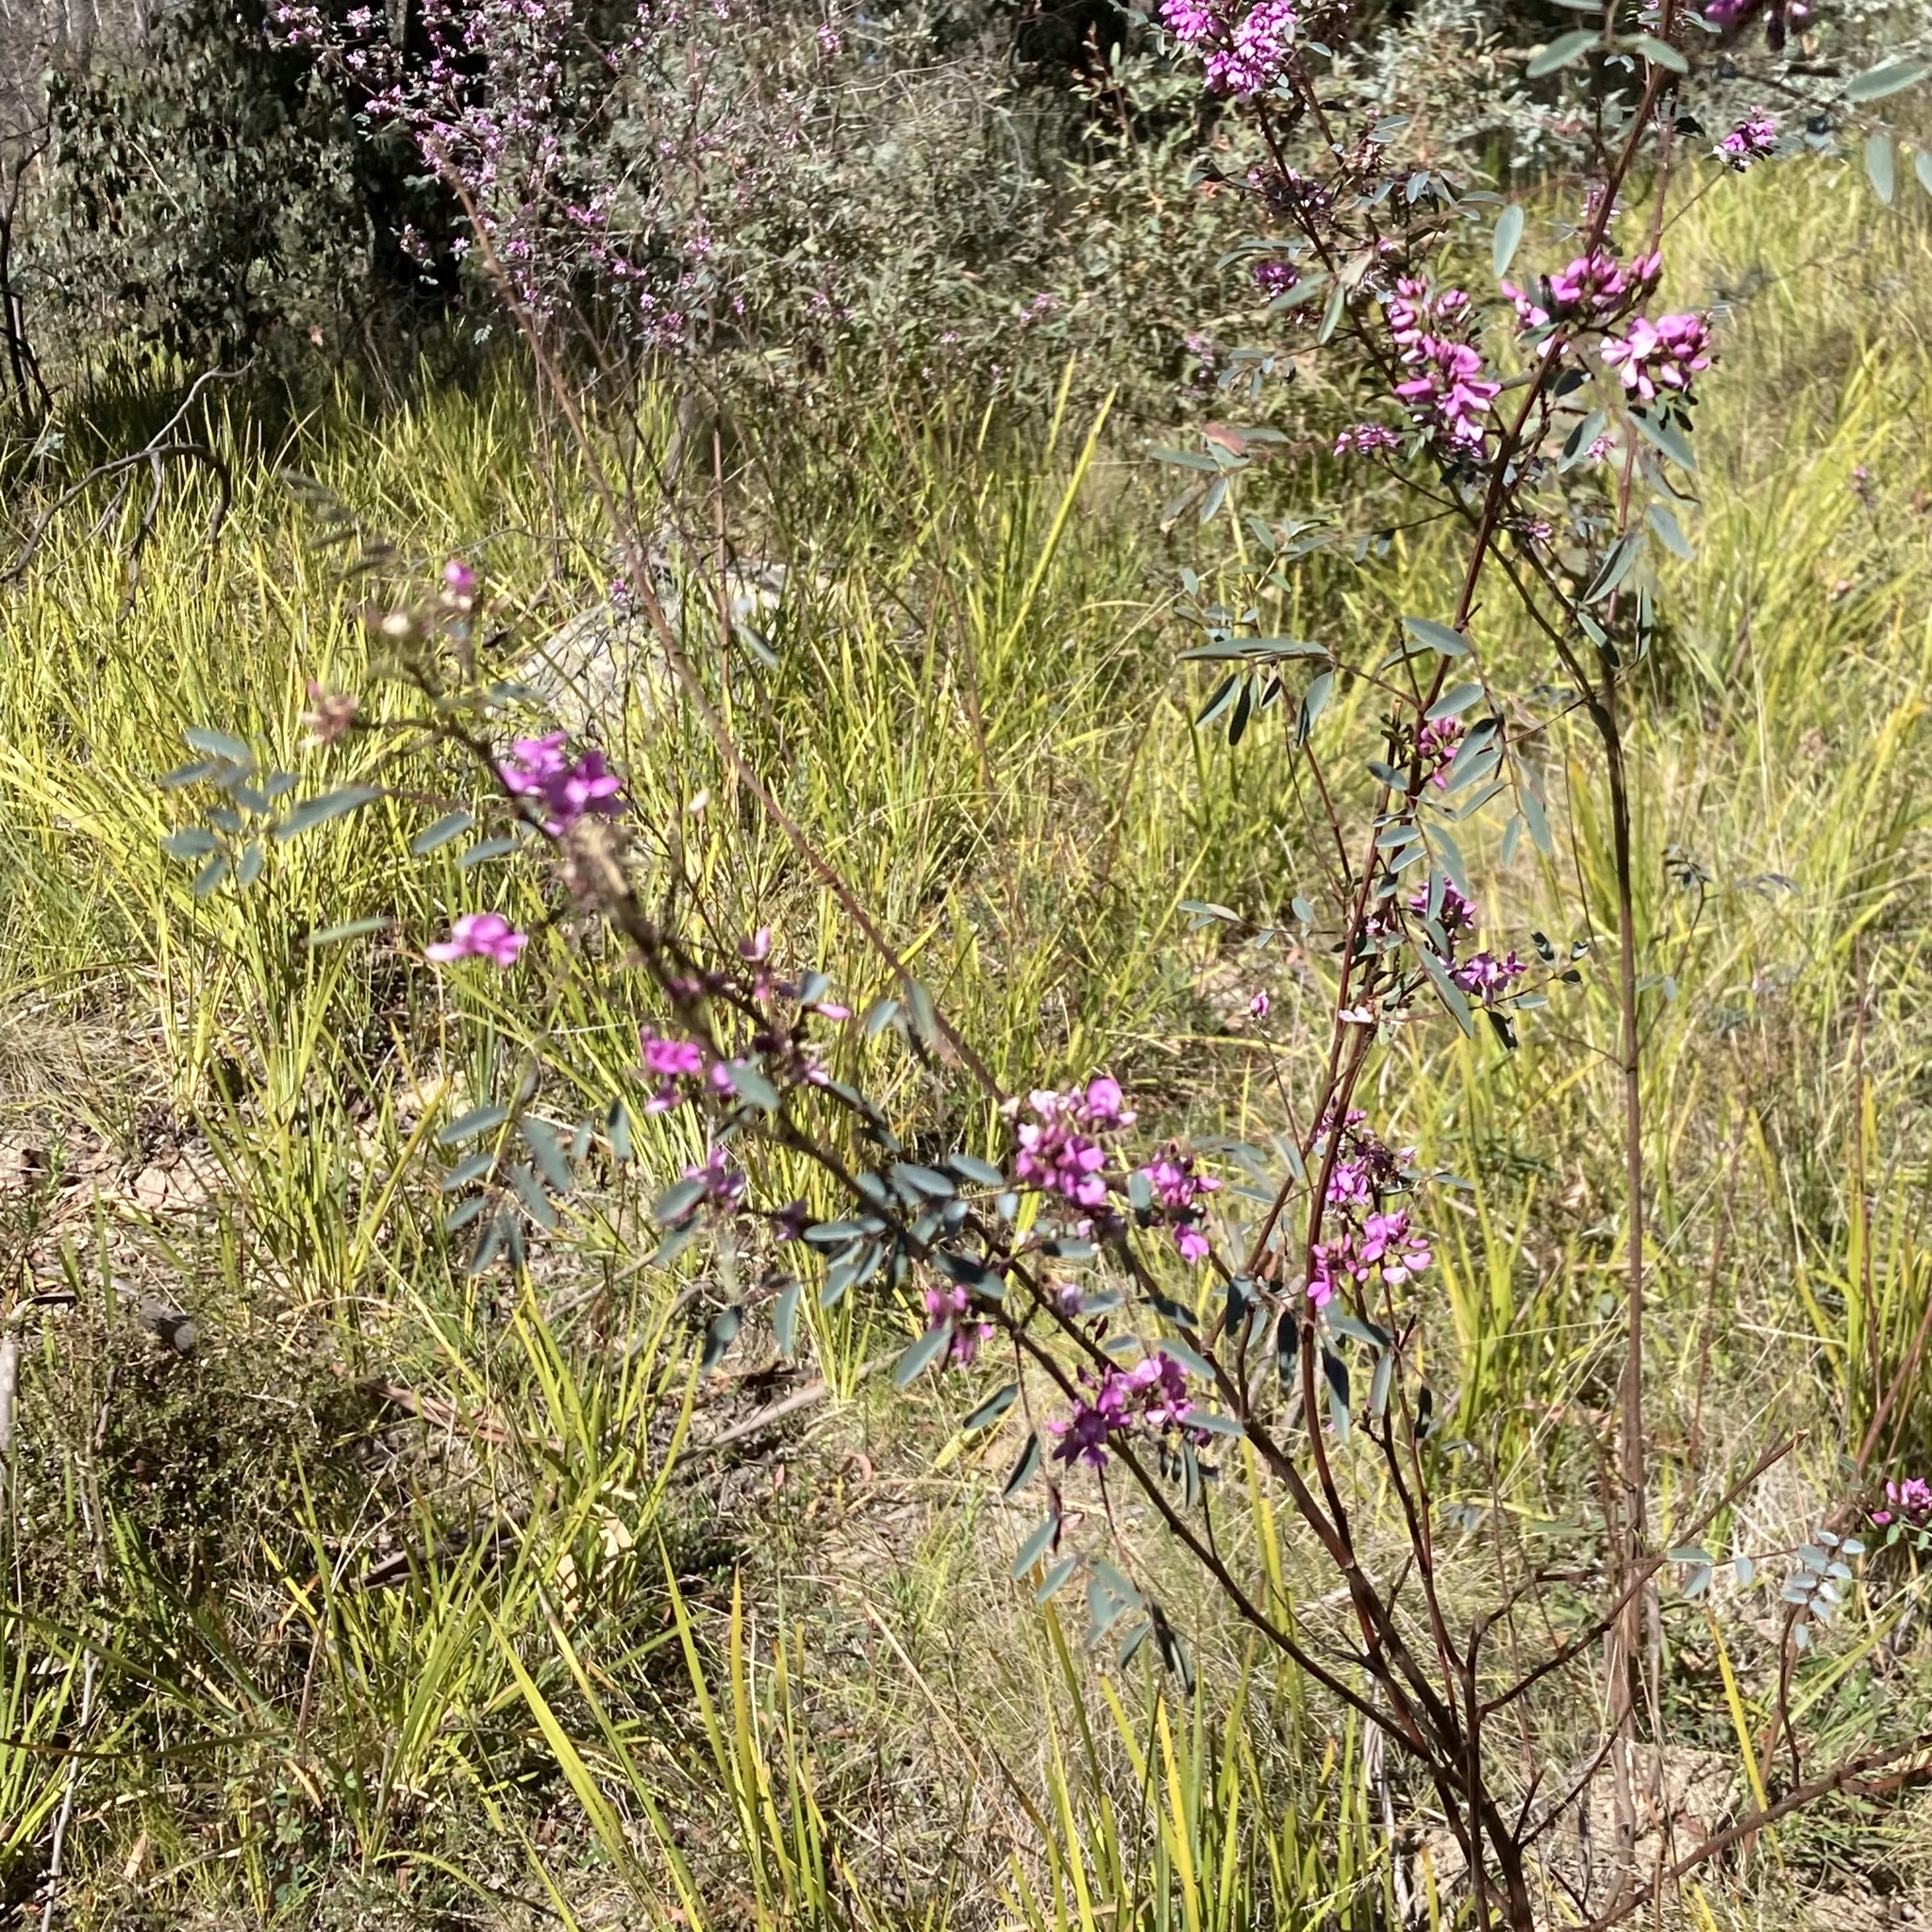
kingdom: Plantae
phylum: Tracheophyta
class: Magnoliopsida
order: Fabales
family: Fabaceae
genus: Indigofera
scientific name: Indigofera australis
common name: Australian indigo
